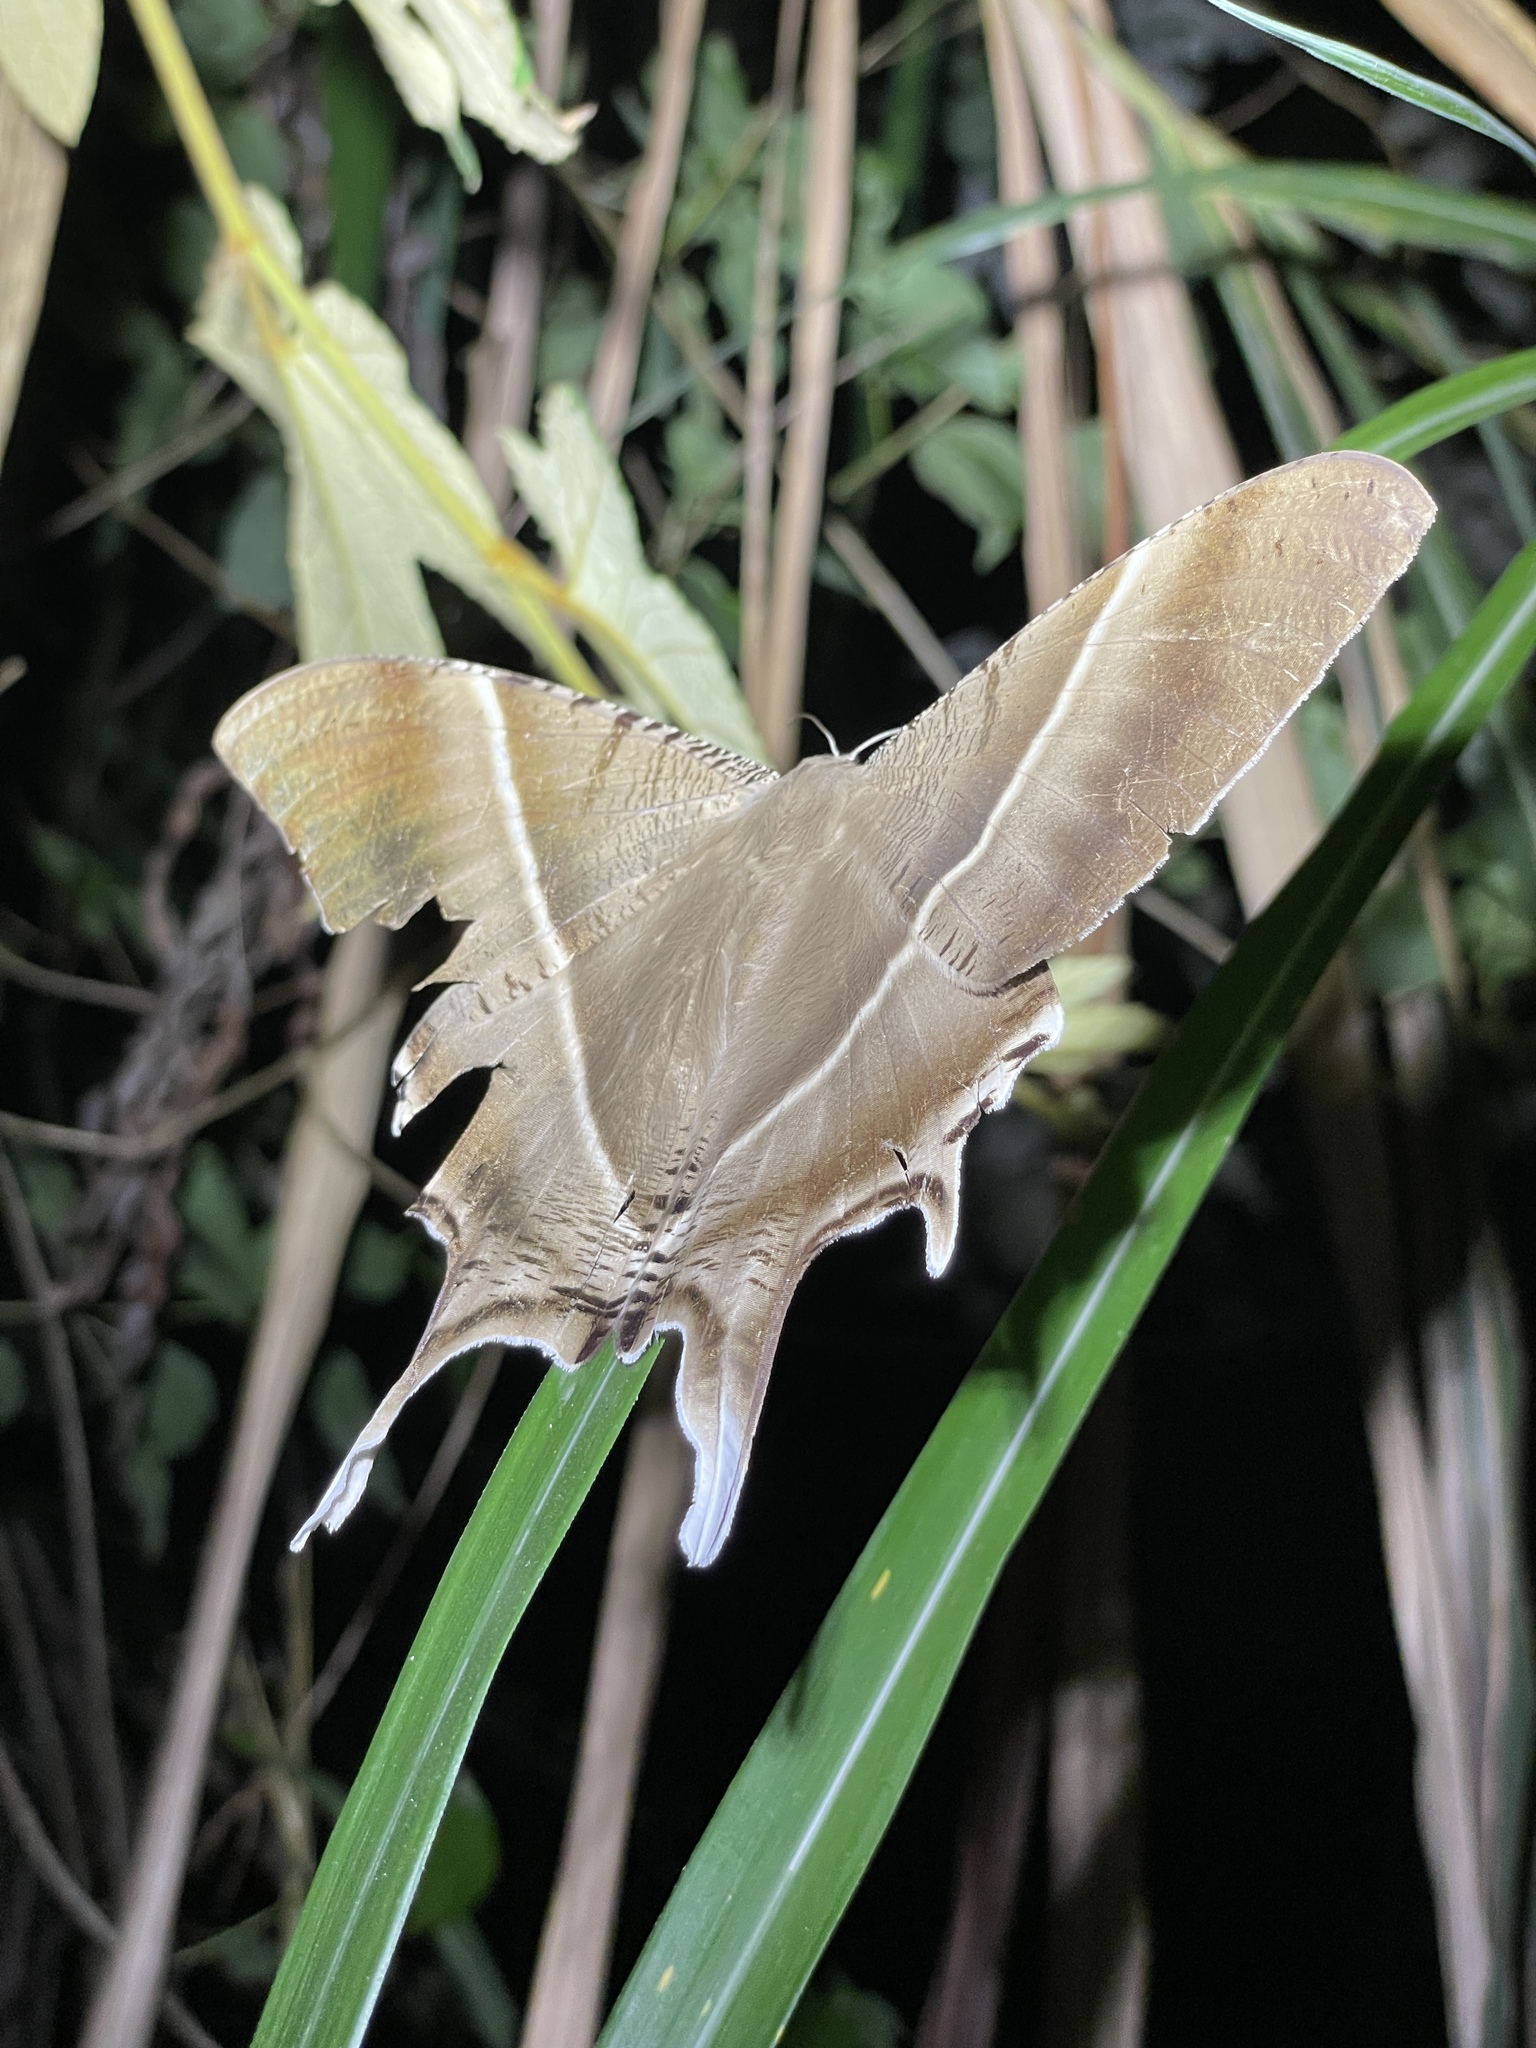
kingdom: Animalia
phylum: Arthropoda
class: Insecta
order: Lepidoptera
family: Uraniidae
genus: Lyssa
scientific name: Lyssa zampa
